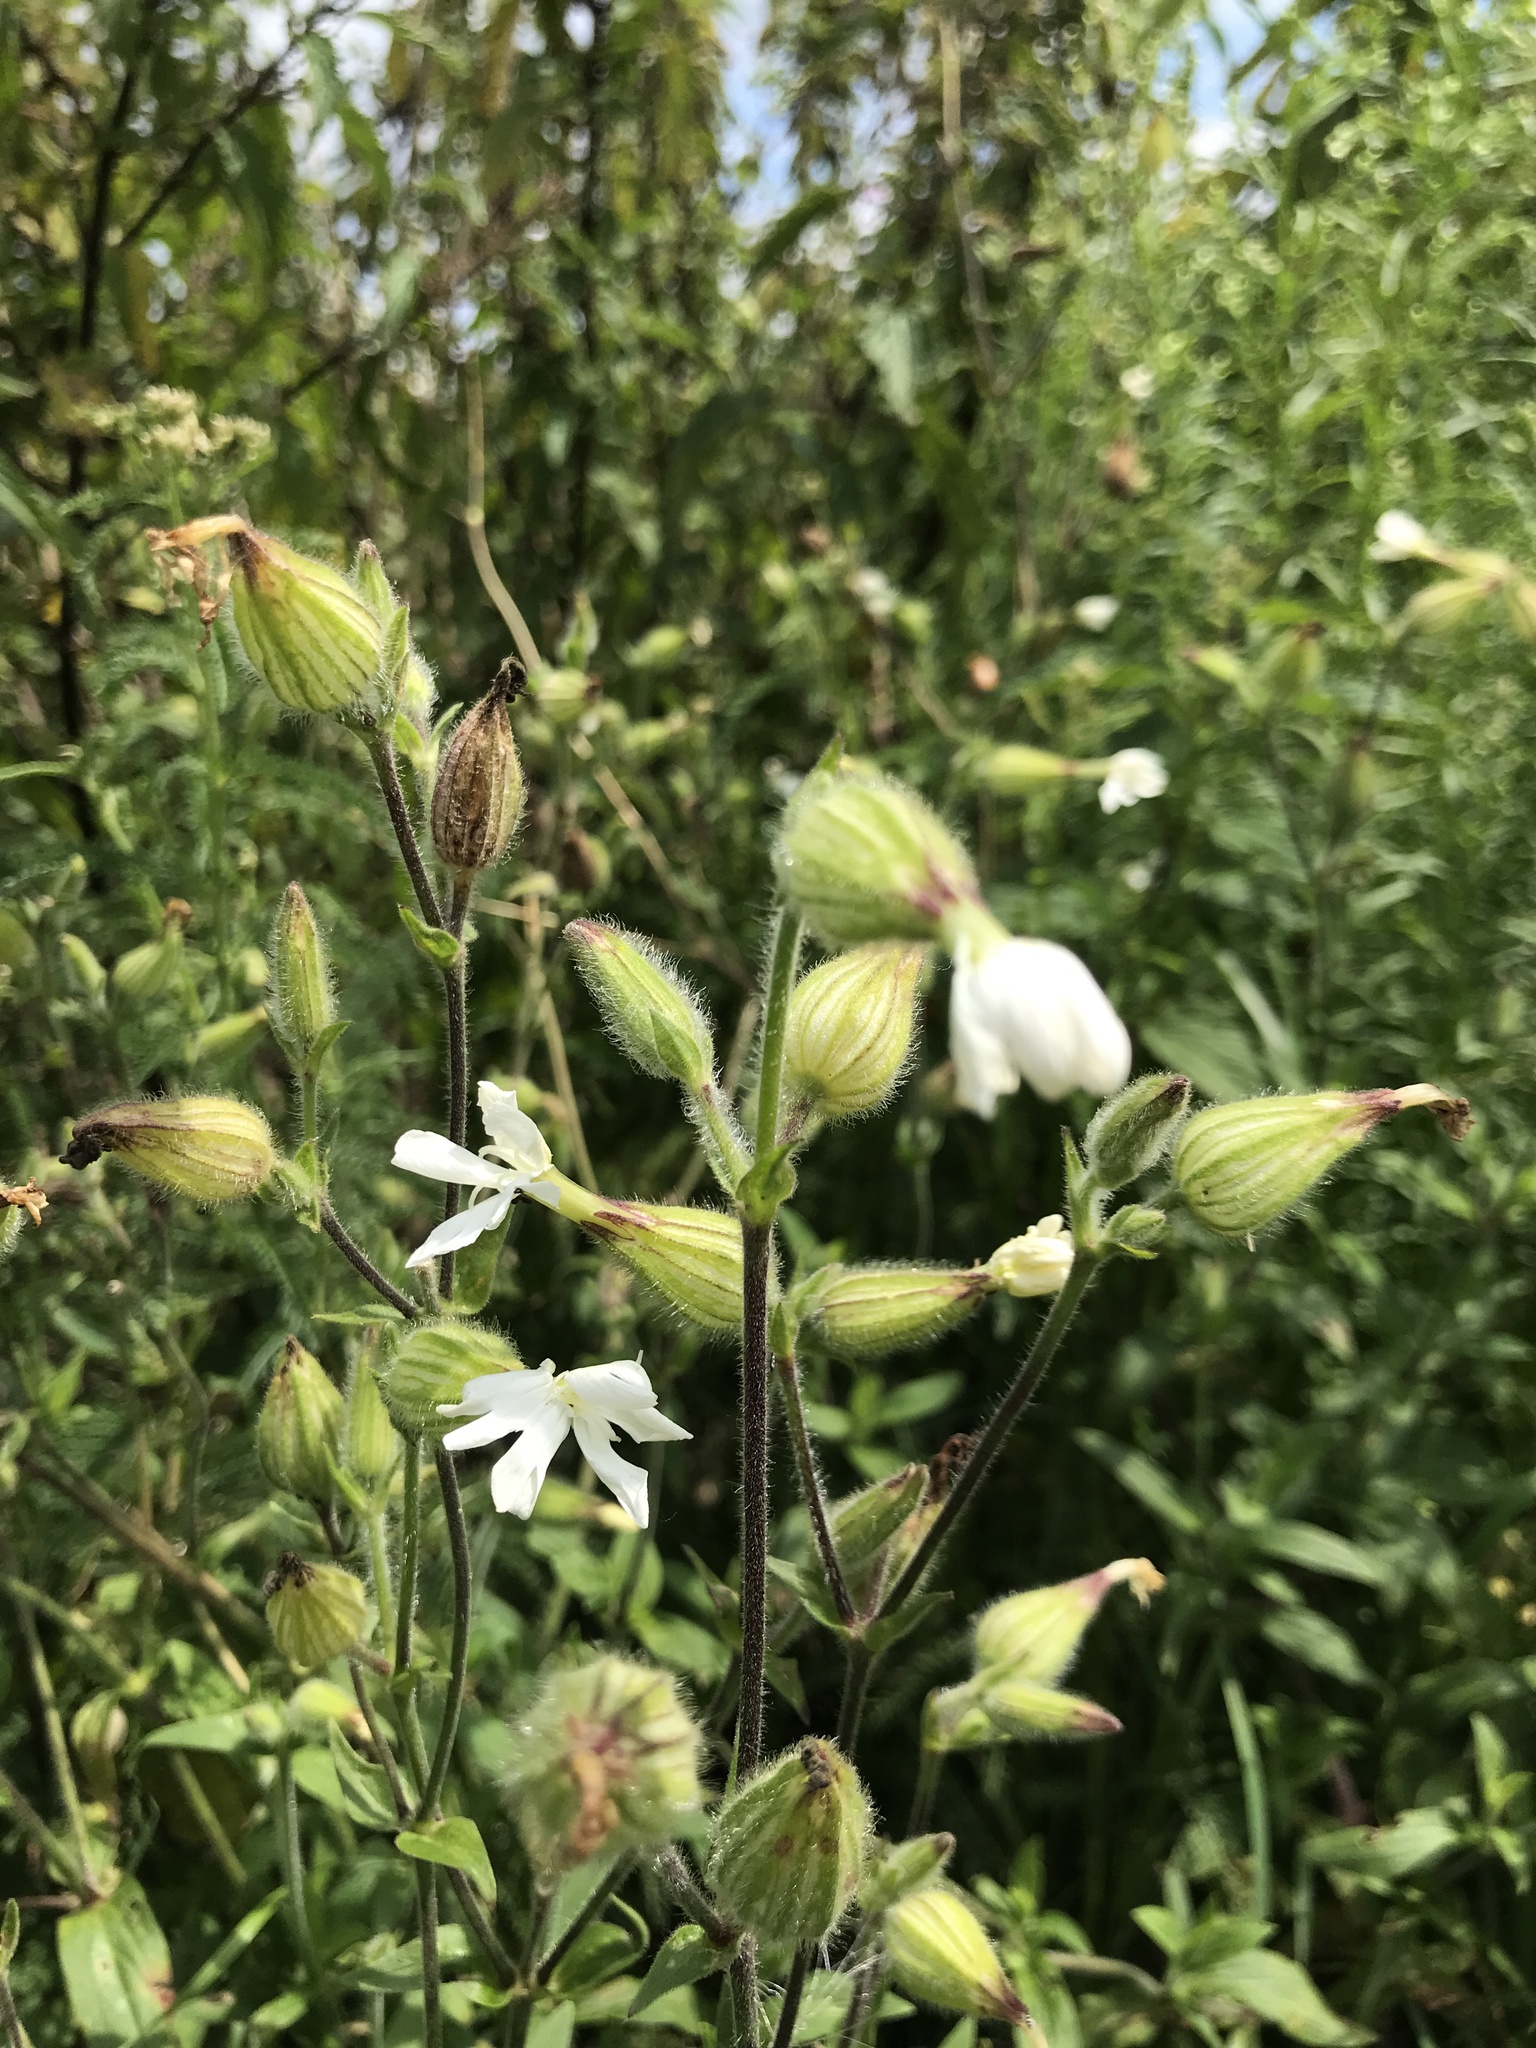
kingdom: Plantae
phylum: Tracheophyta
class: Magnoliopsida
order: Caryophyllales
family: Caryophyllaceae
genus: Silene
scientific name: Silene latifolia
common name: White campion
